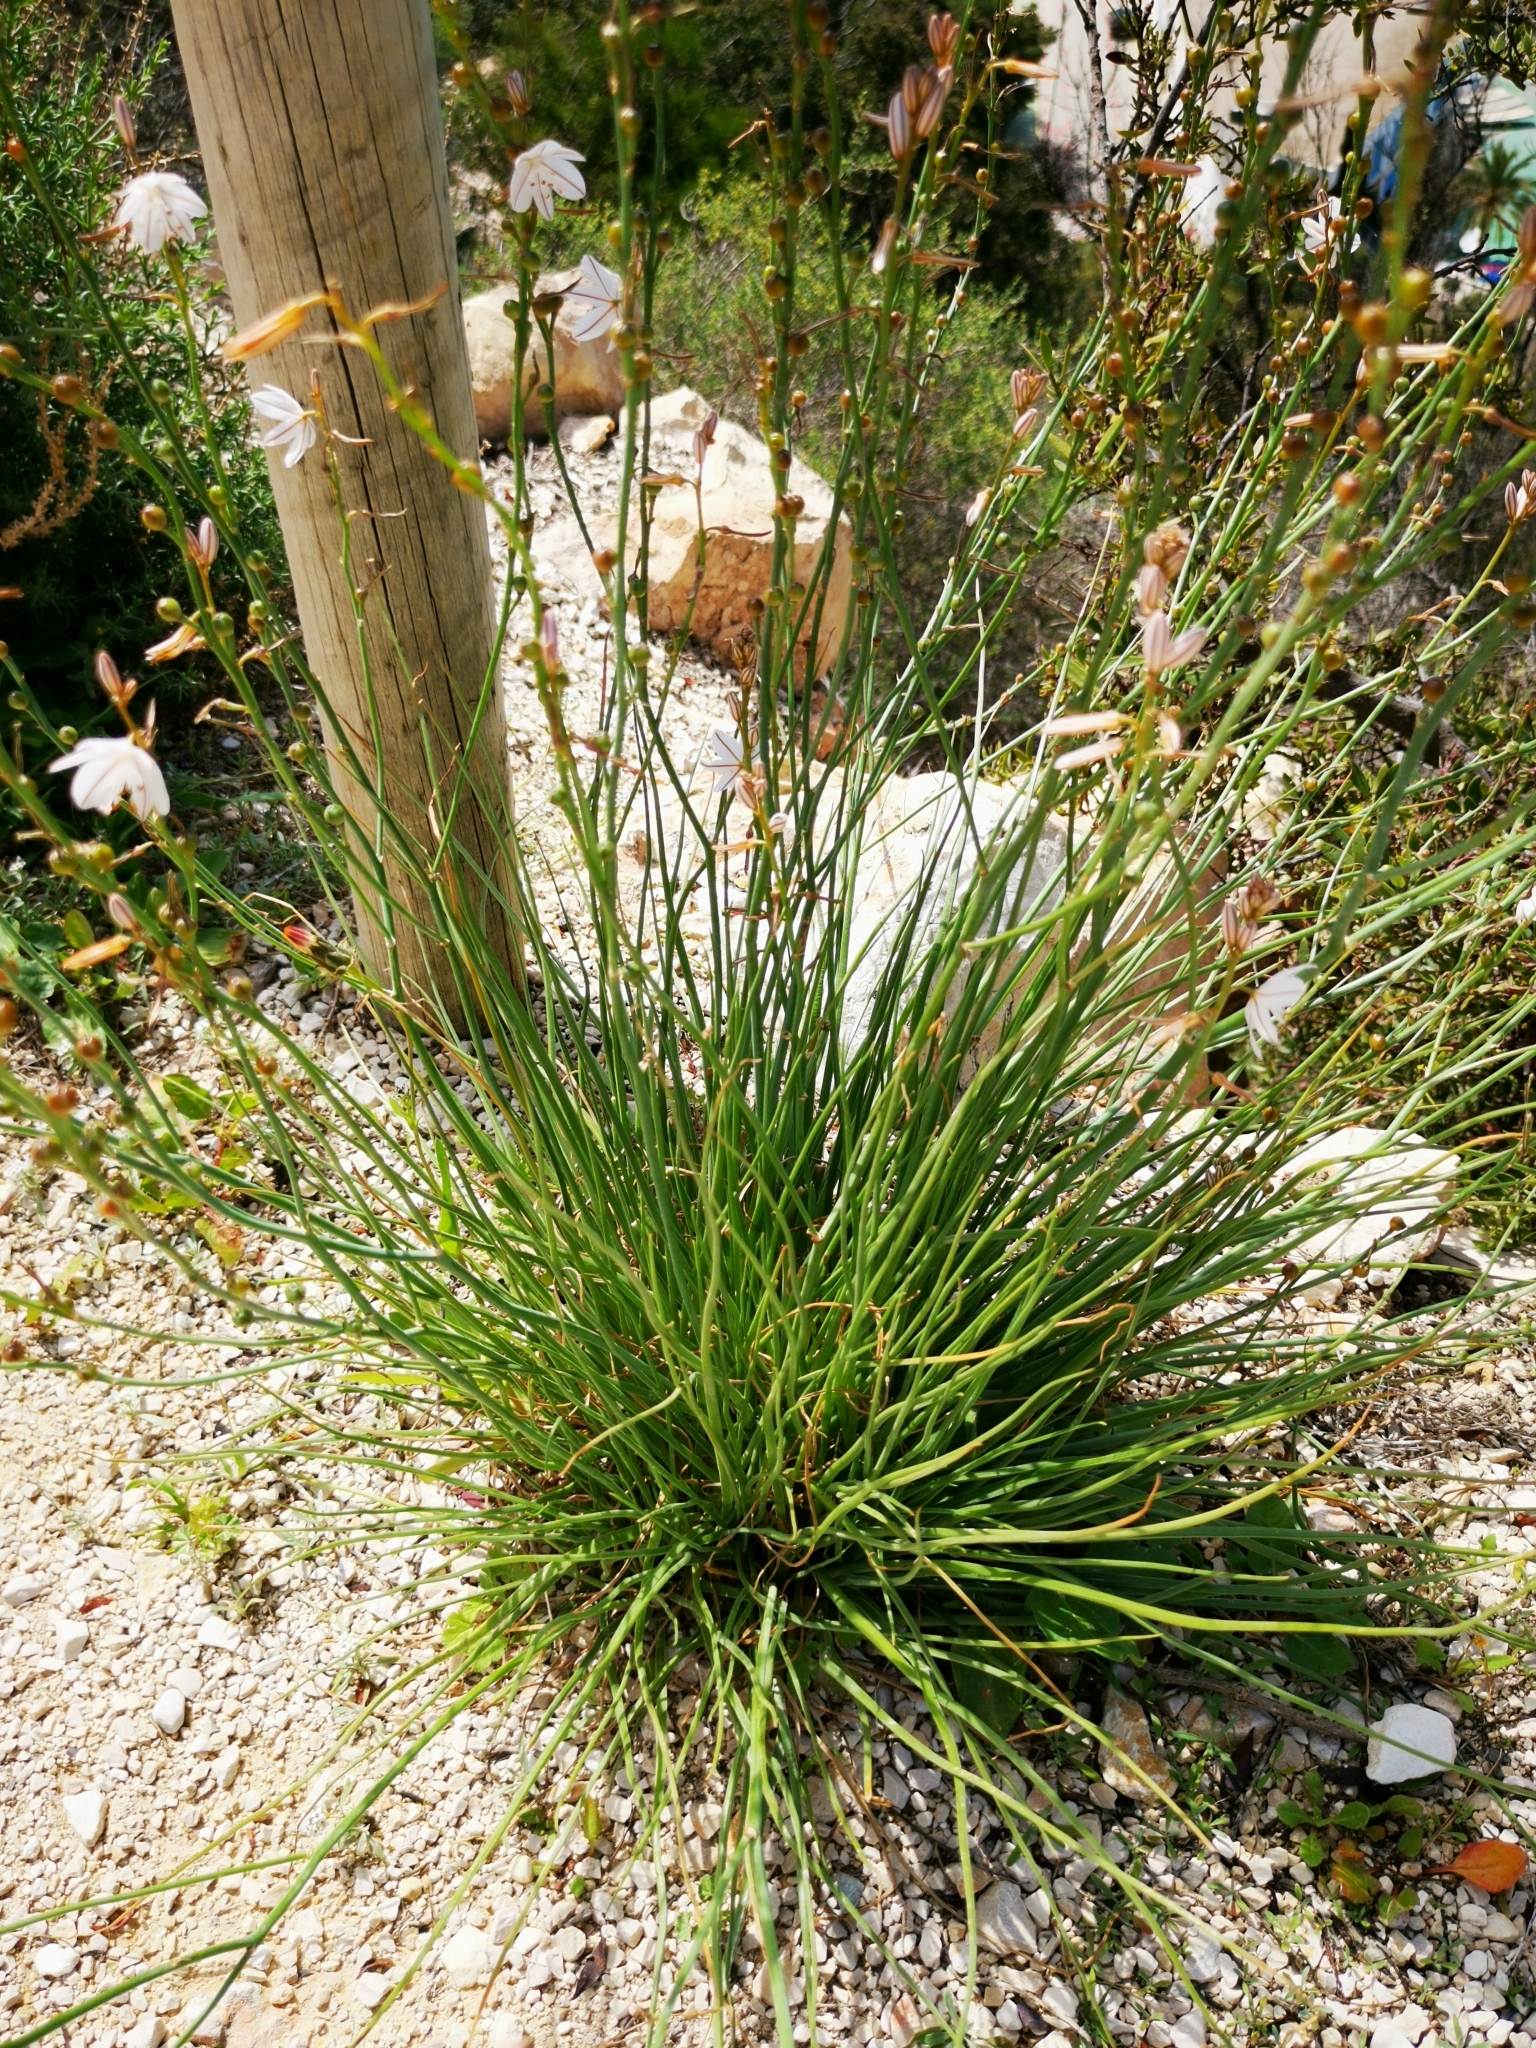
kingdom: Plantae
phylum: Tracheophyta
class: Liliopsida
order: Asparagales
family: Asphodelaceae
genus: Asphodelus
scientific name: Asphodelus fistulosus
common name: Onionweed
